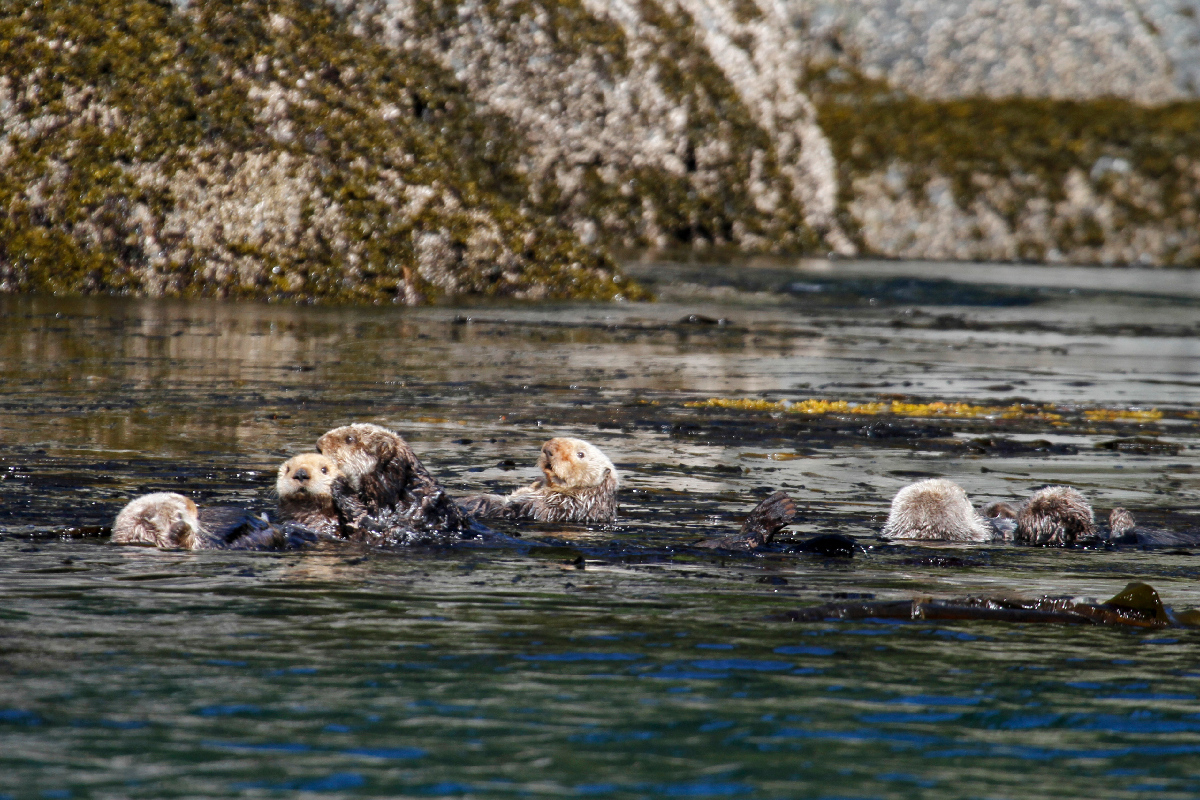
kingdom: Animalia
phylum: Chordata
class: Mammalia
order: Carnivora
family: Mustelidae
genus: Enhydra
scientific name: Enhydra lutris
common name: Sea otter
